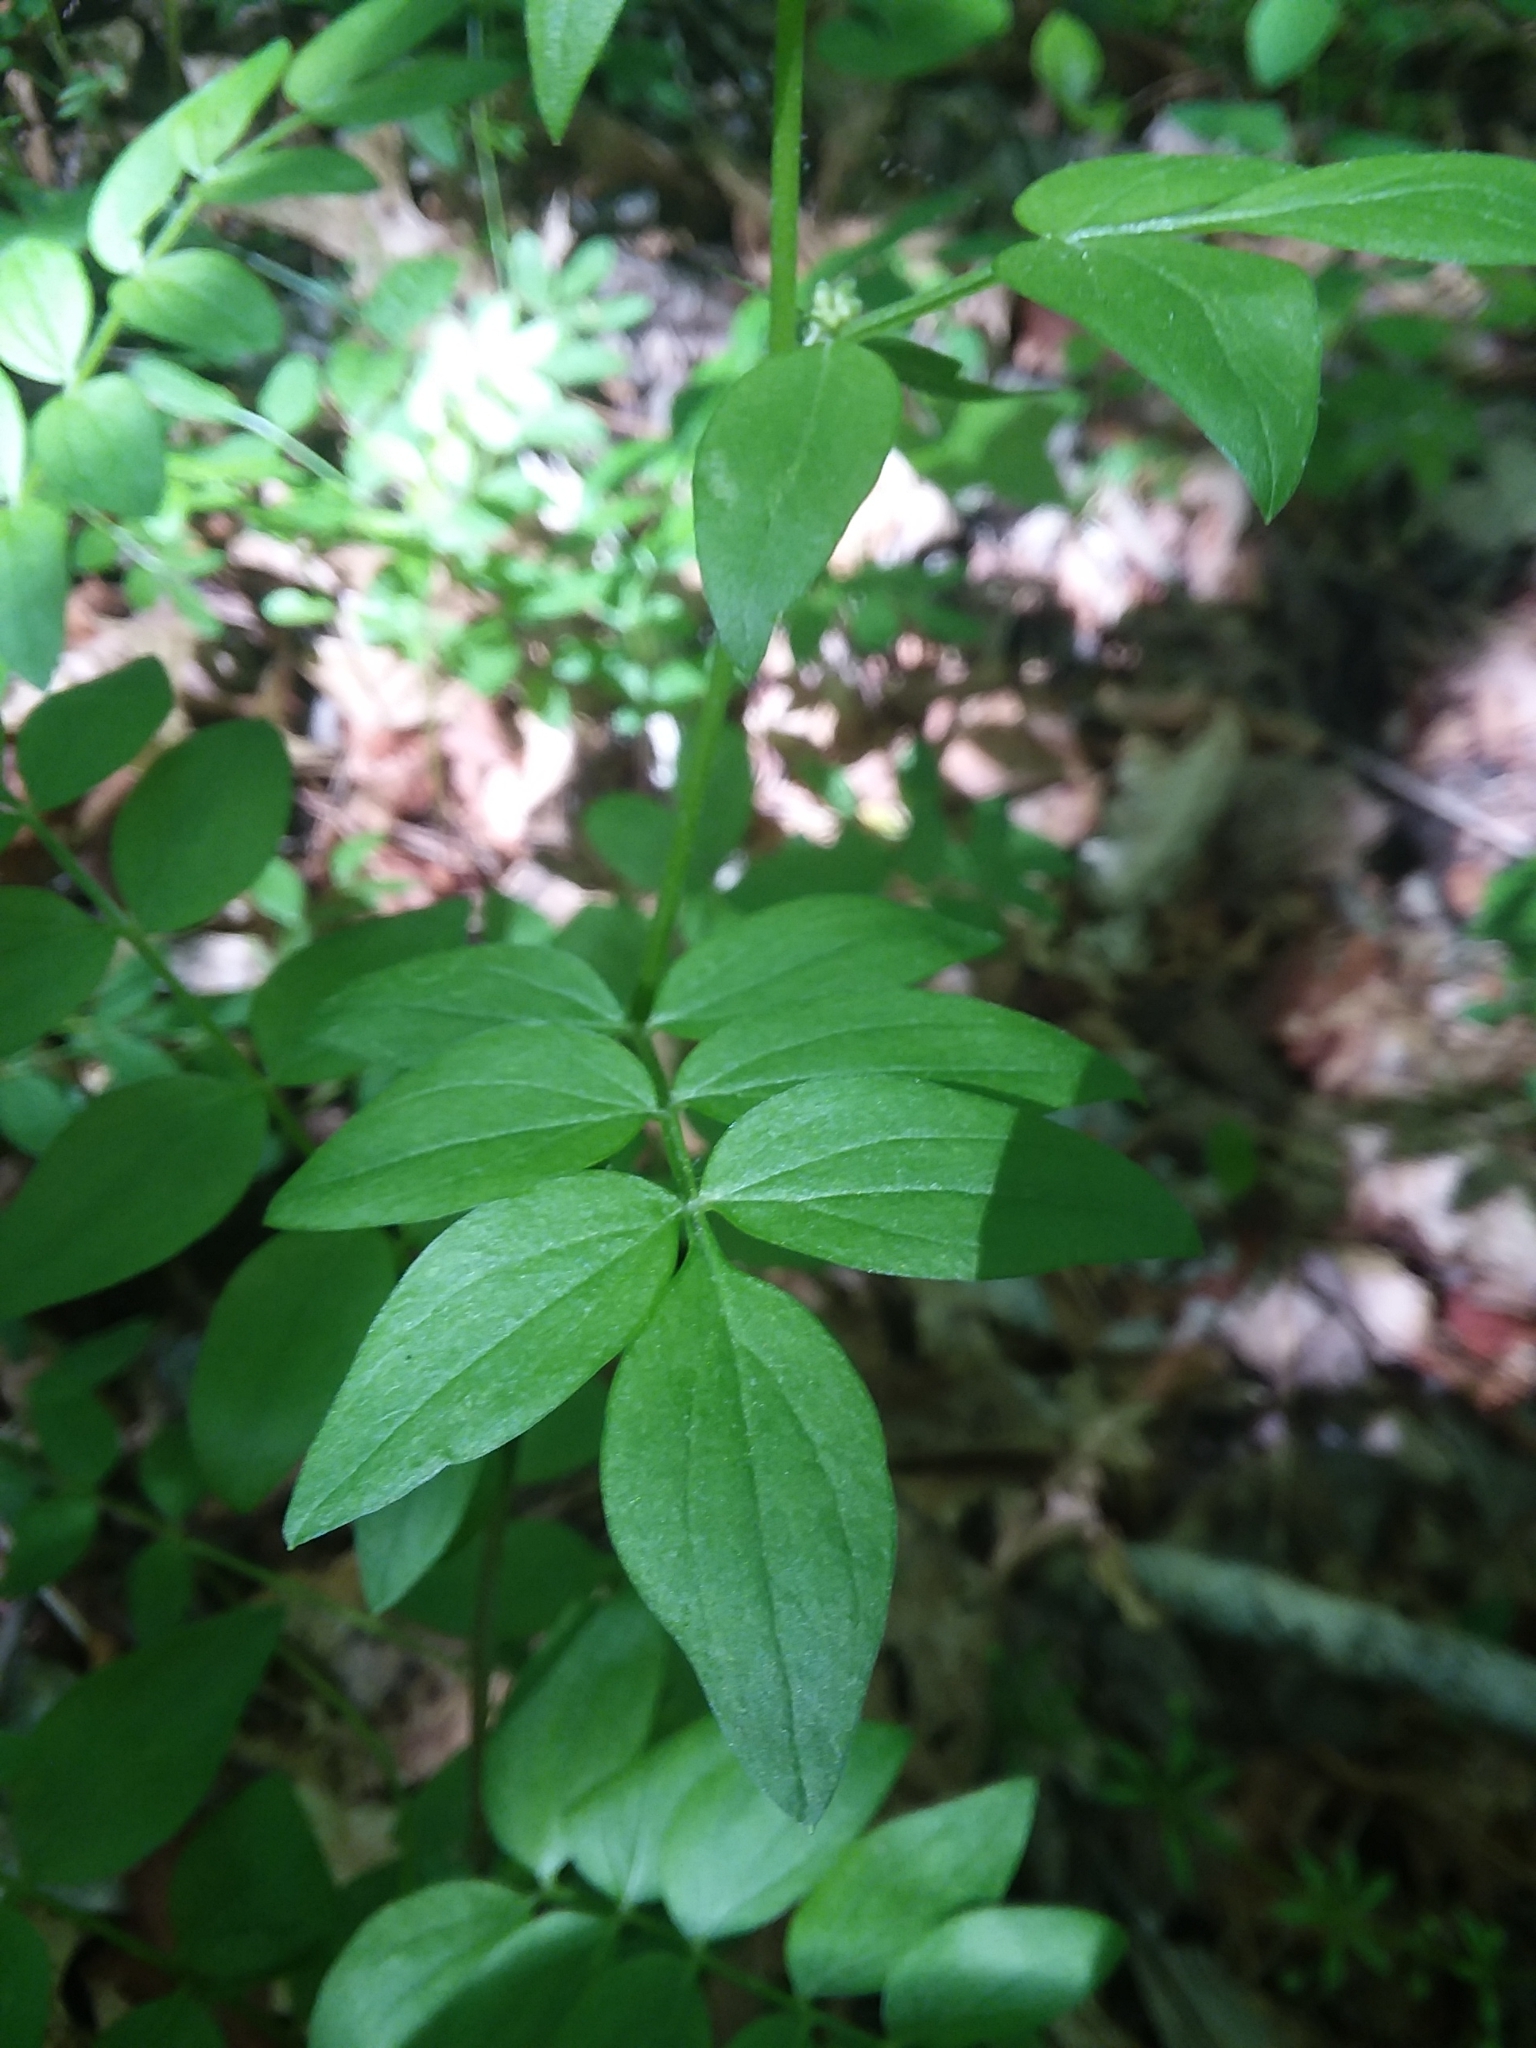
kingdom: Plantae
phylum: Tracheophyta
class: Magnoliopsida
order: Ericales
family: Polemoniaceae
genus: Polemonium
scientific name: Polemonium reptans
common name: Creeping jacob's-ladder
